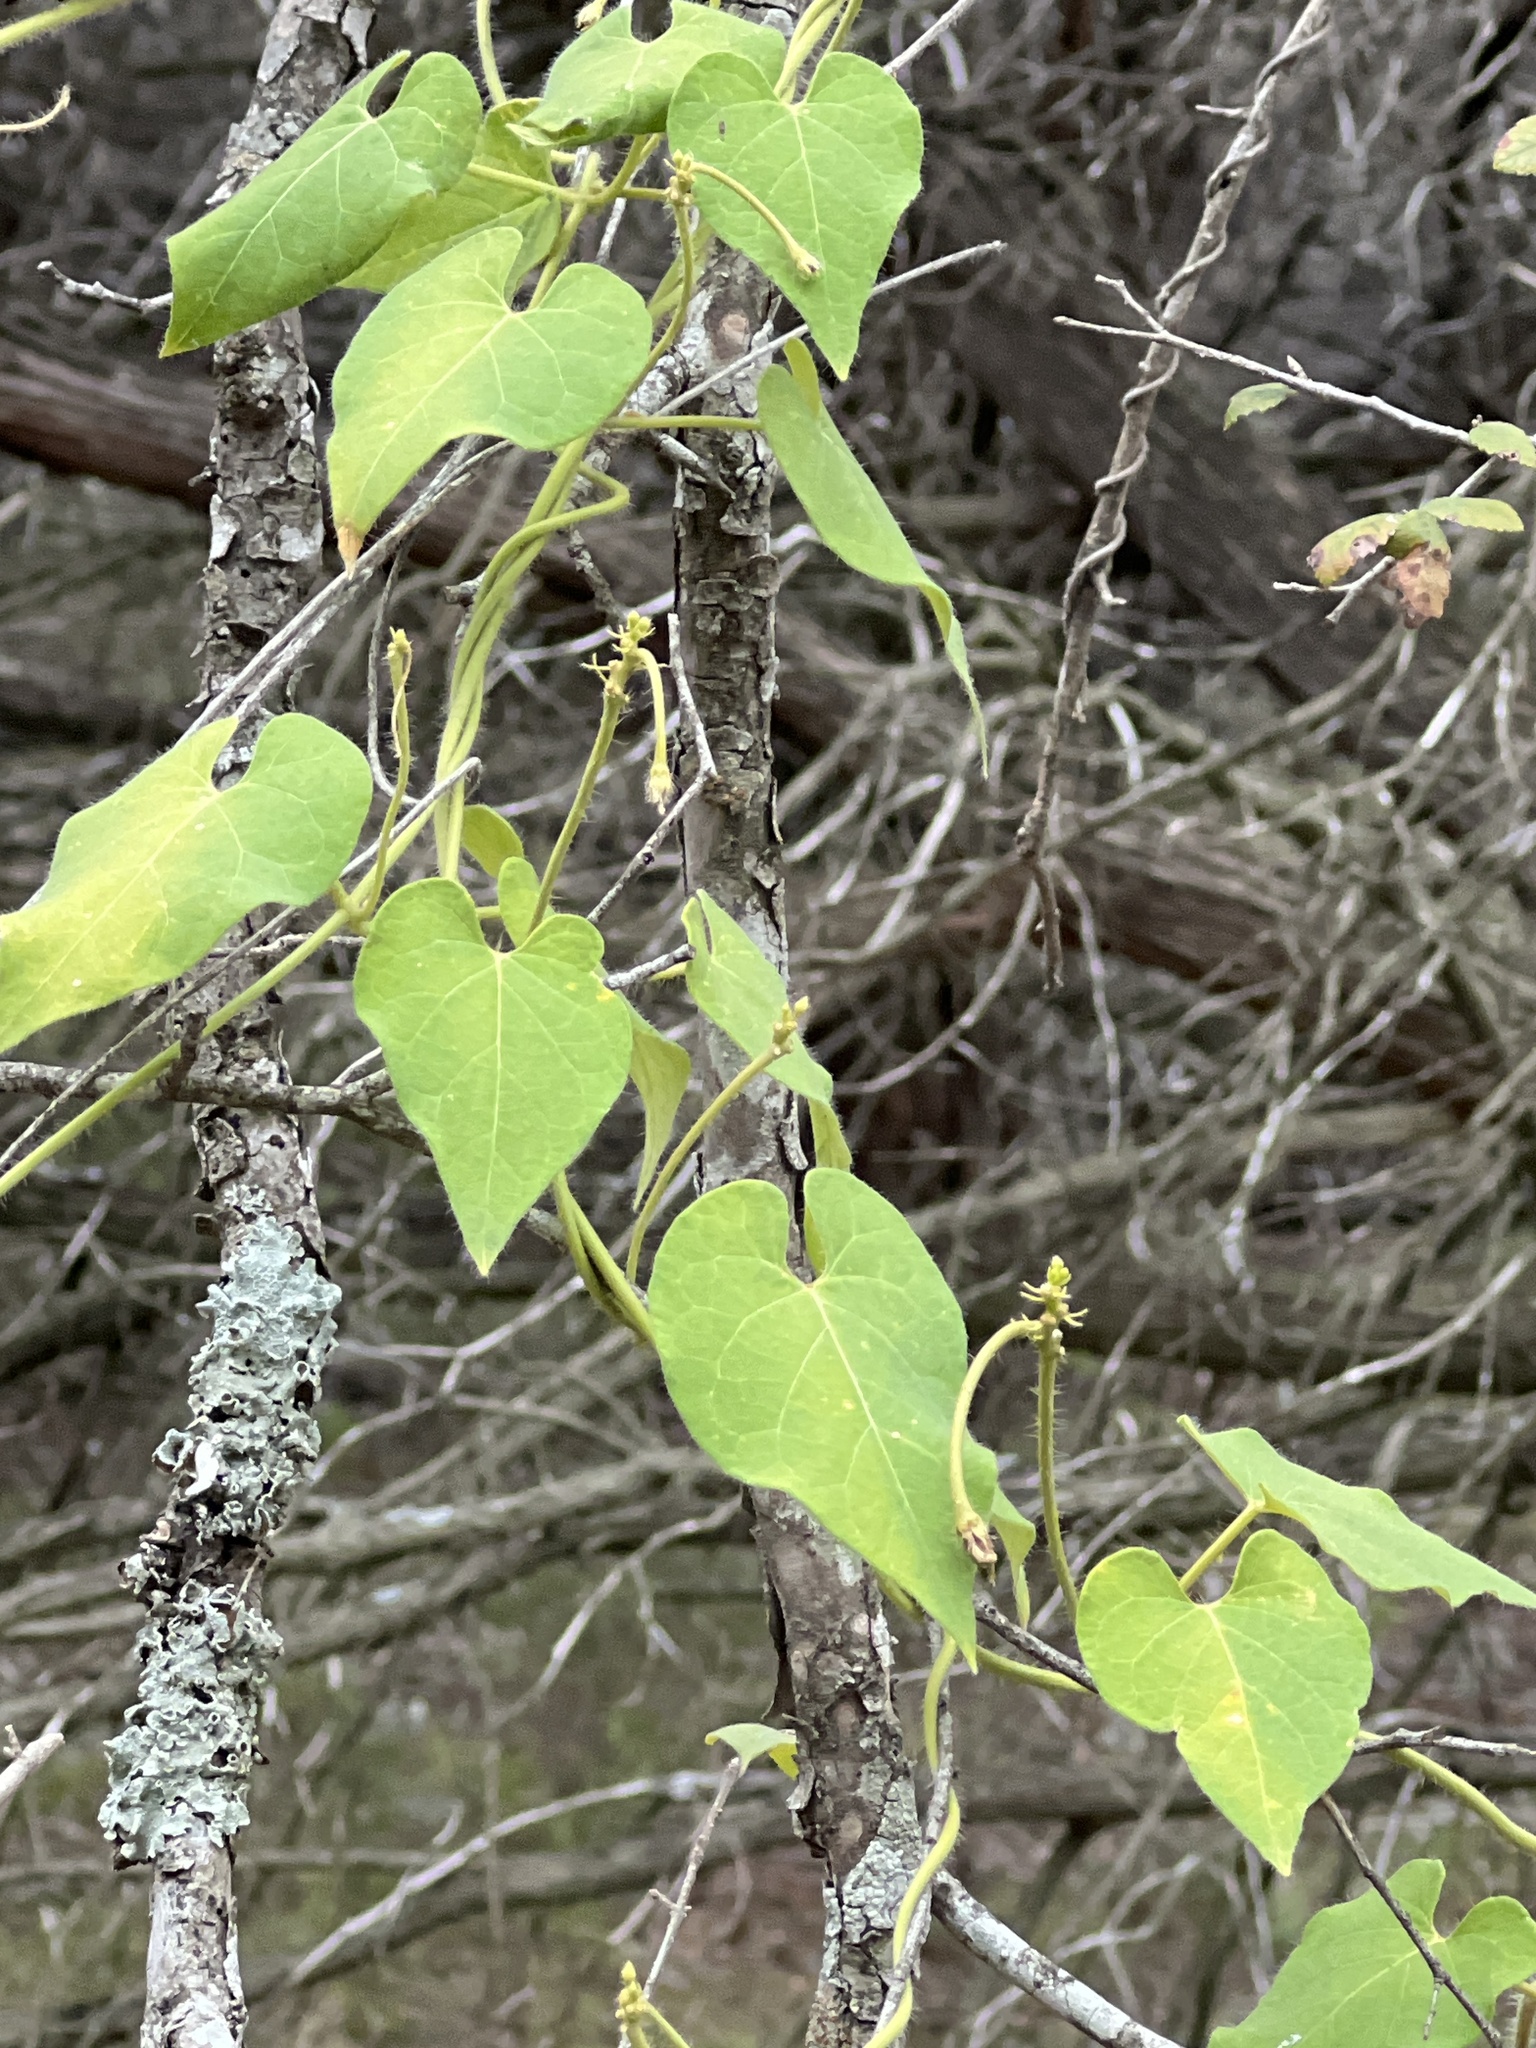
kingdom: Plantae
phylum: Tracheophyta
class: Magnoliopsida
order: Gentianales
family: Apocynaceae
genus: Dictyanthus
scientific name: Dictyanthus reticulatus
